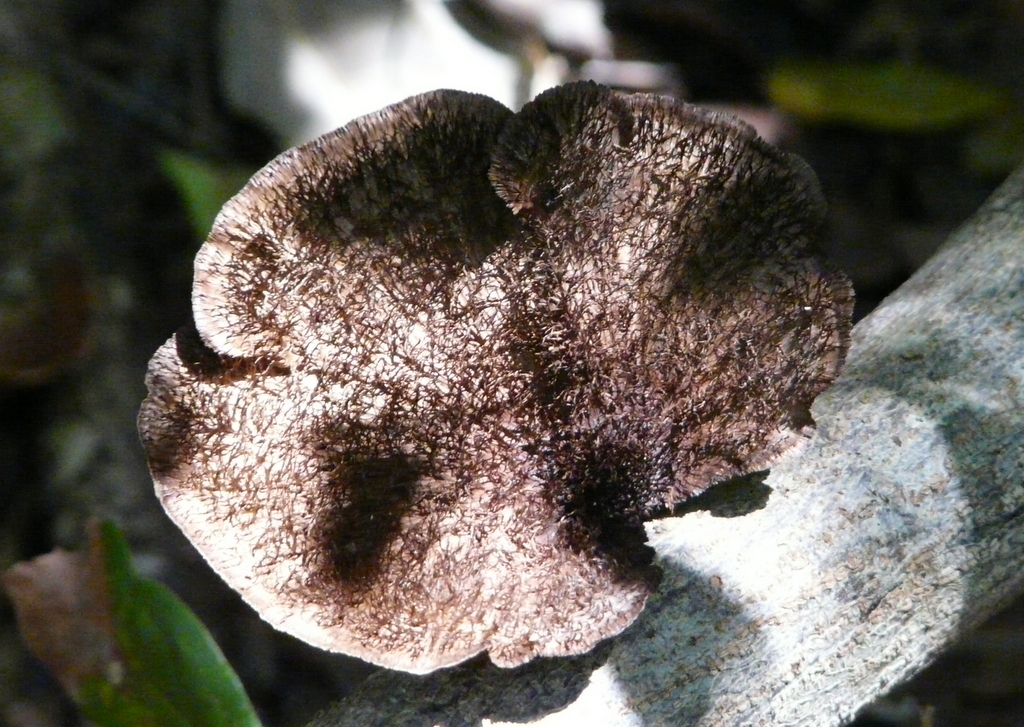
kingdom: Fungi
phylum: Basidiomycota
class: Agaricomycetes
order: Polyporales
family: Cerrenaceae
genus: Cerrena
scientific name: Cerrena hydnoides
